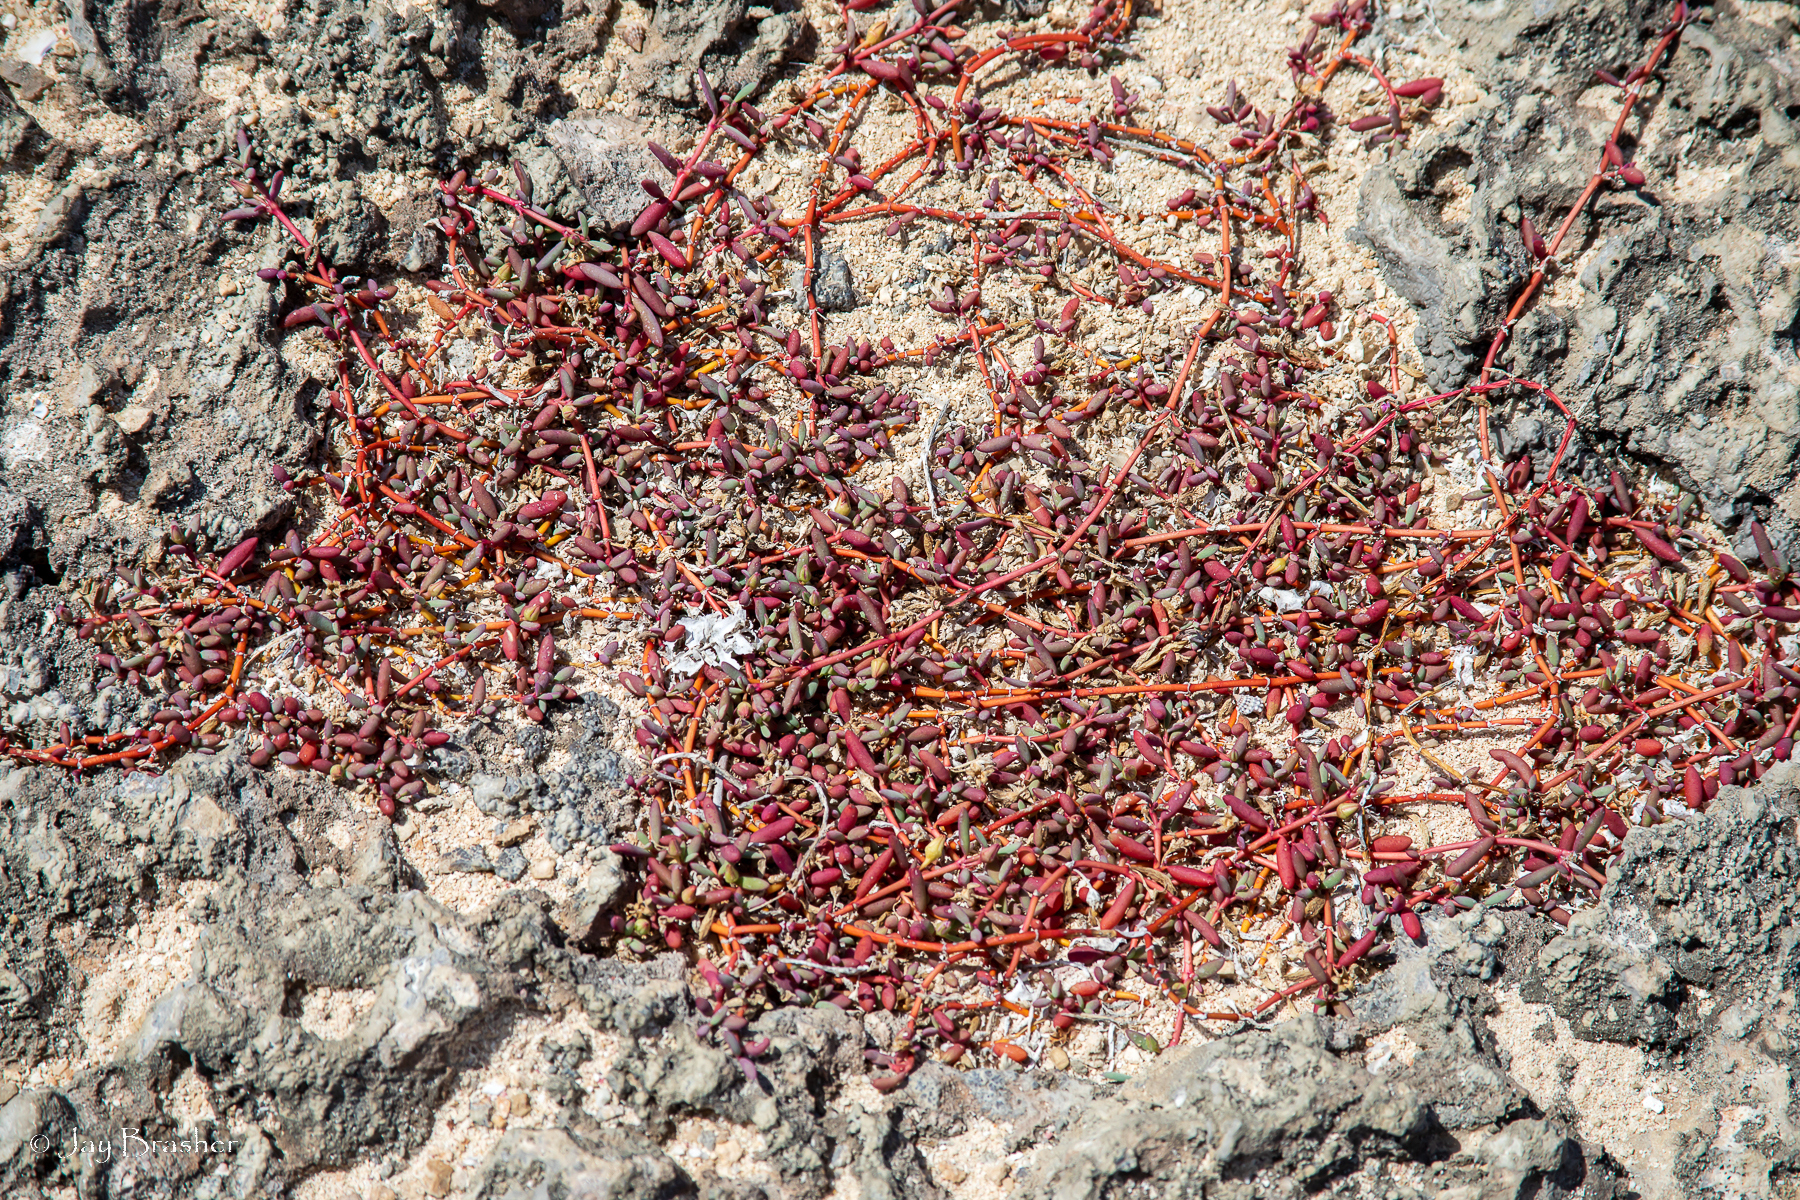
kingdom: Plantae
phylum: Tracheophyta
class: Magnoliopsida
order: Caryophyllales
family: Aizoaceae
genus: Sesuvium
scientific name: Sesuvium portulacastrum
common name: Sea-purslane
